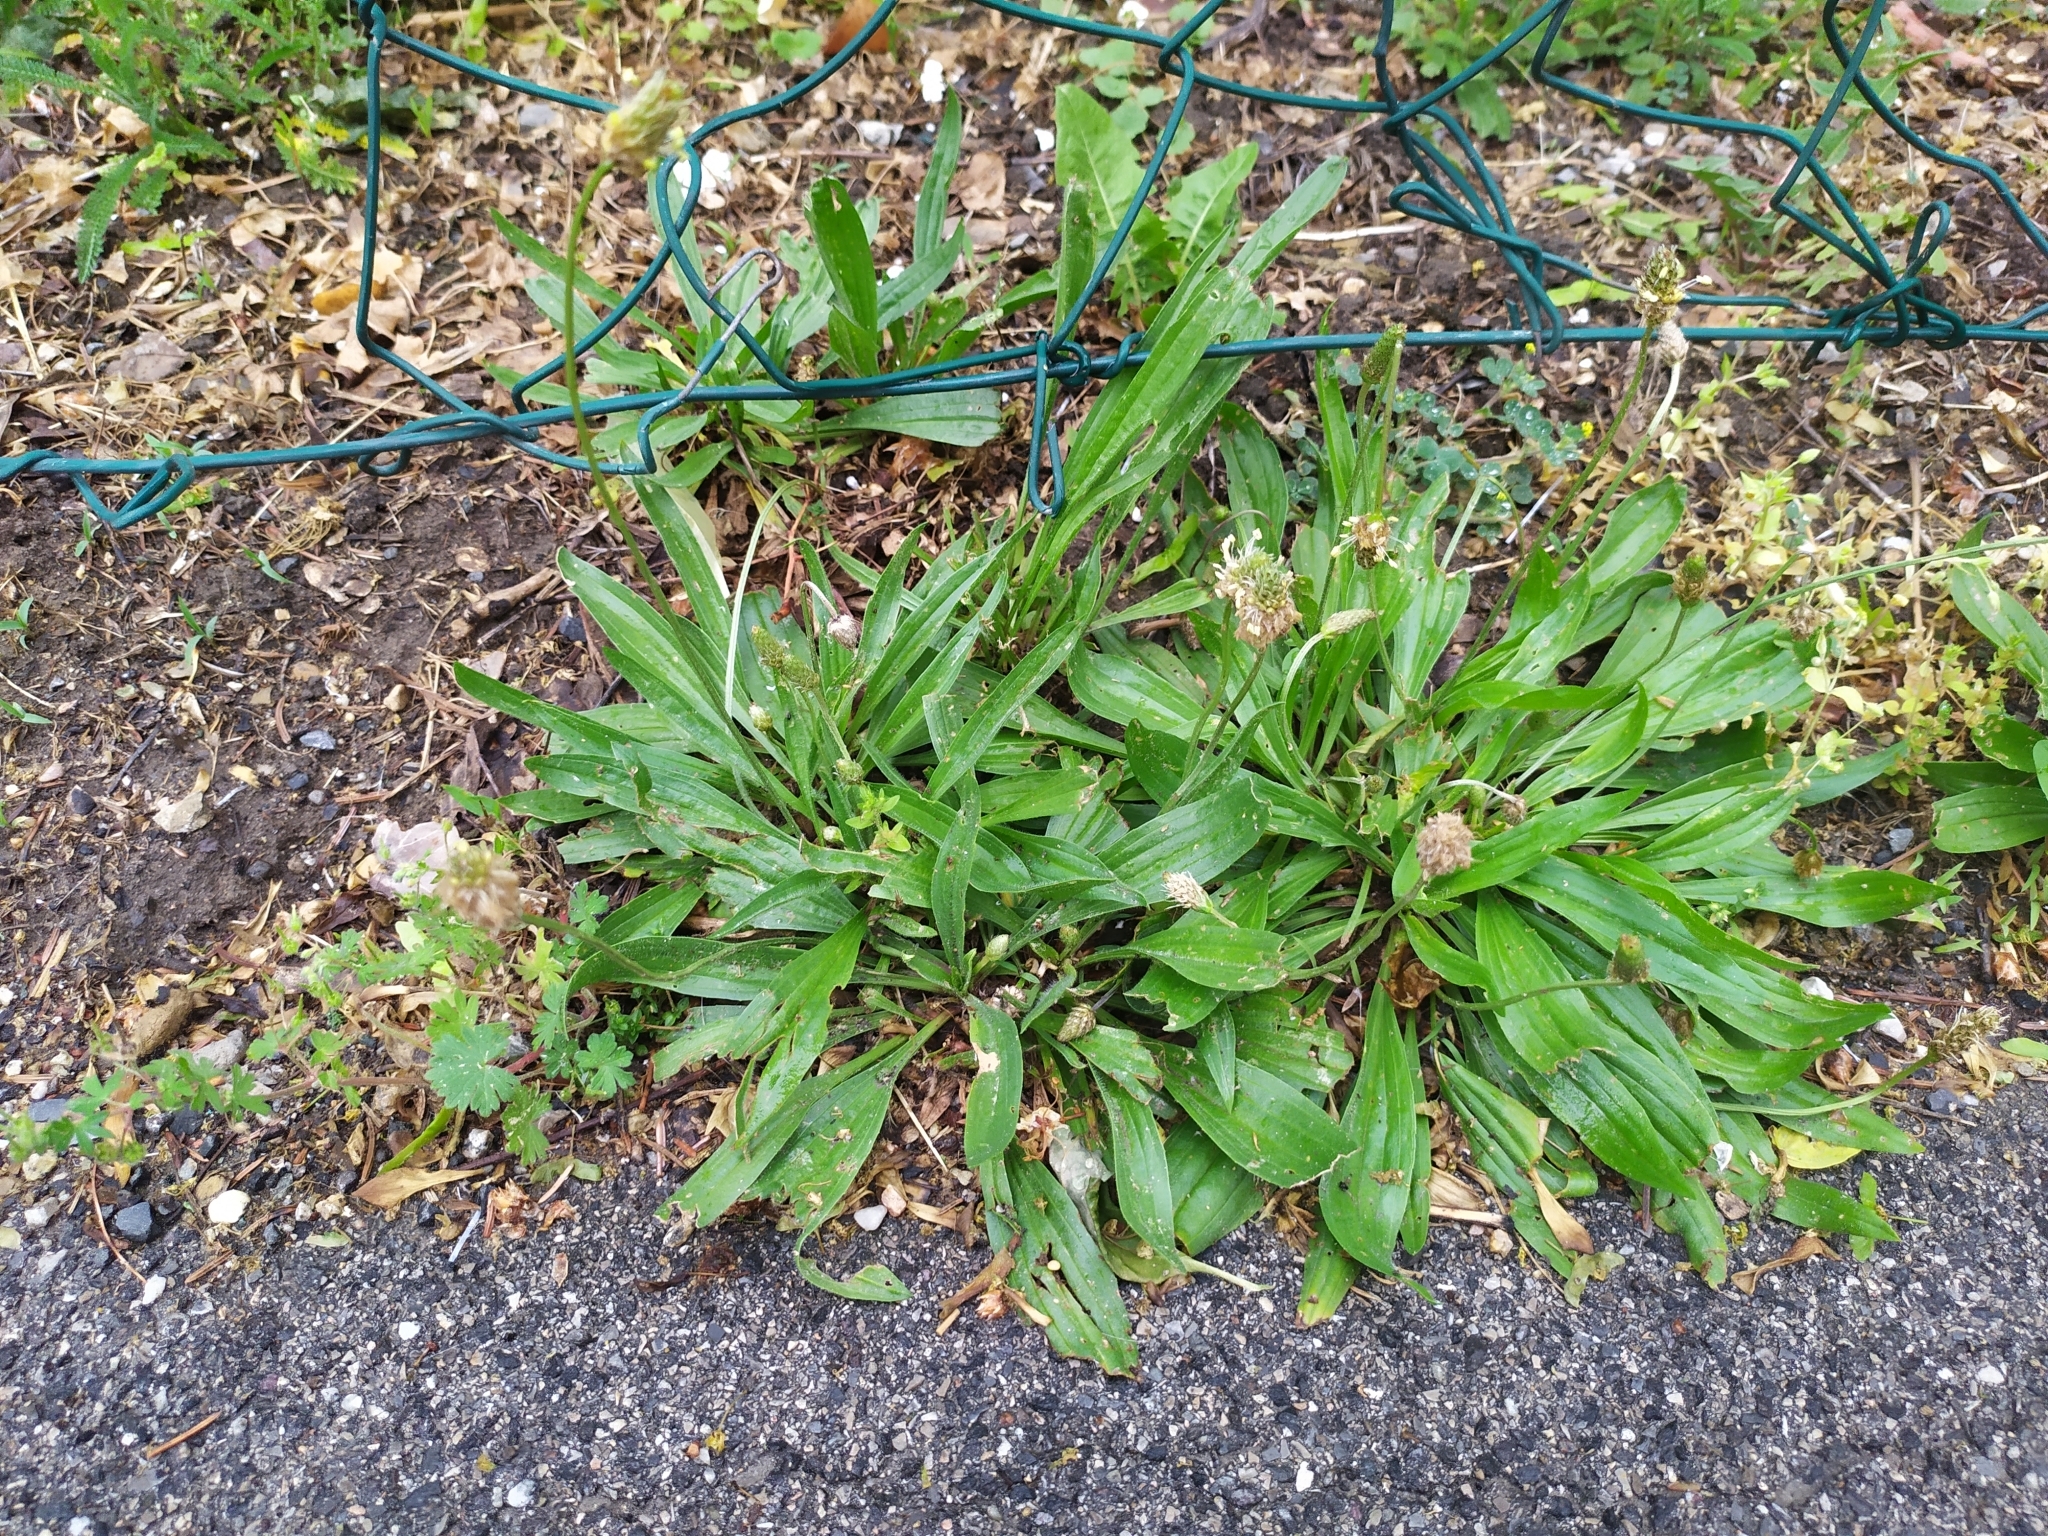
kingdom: Plantae
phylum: Tracheophyta
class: Magnoliopsida
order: Lamiales
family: Plantaginaceae
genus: Plantago
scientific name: Plantago lanceolata
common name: Ribwort plantain
